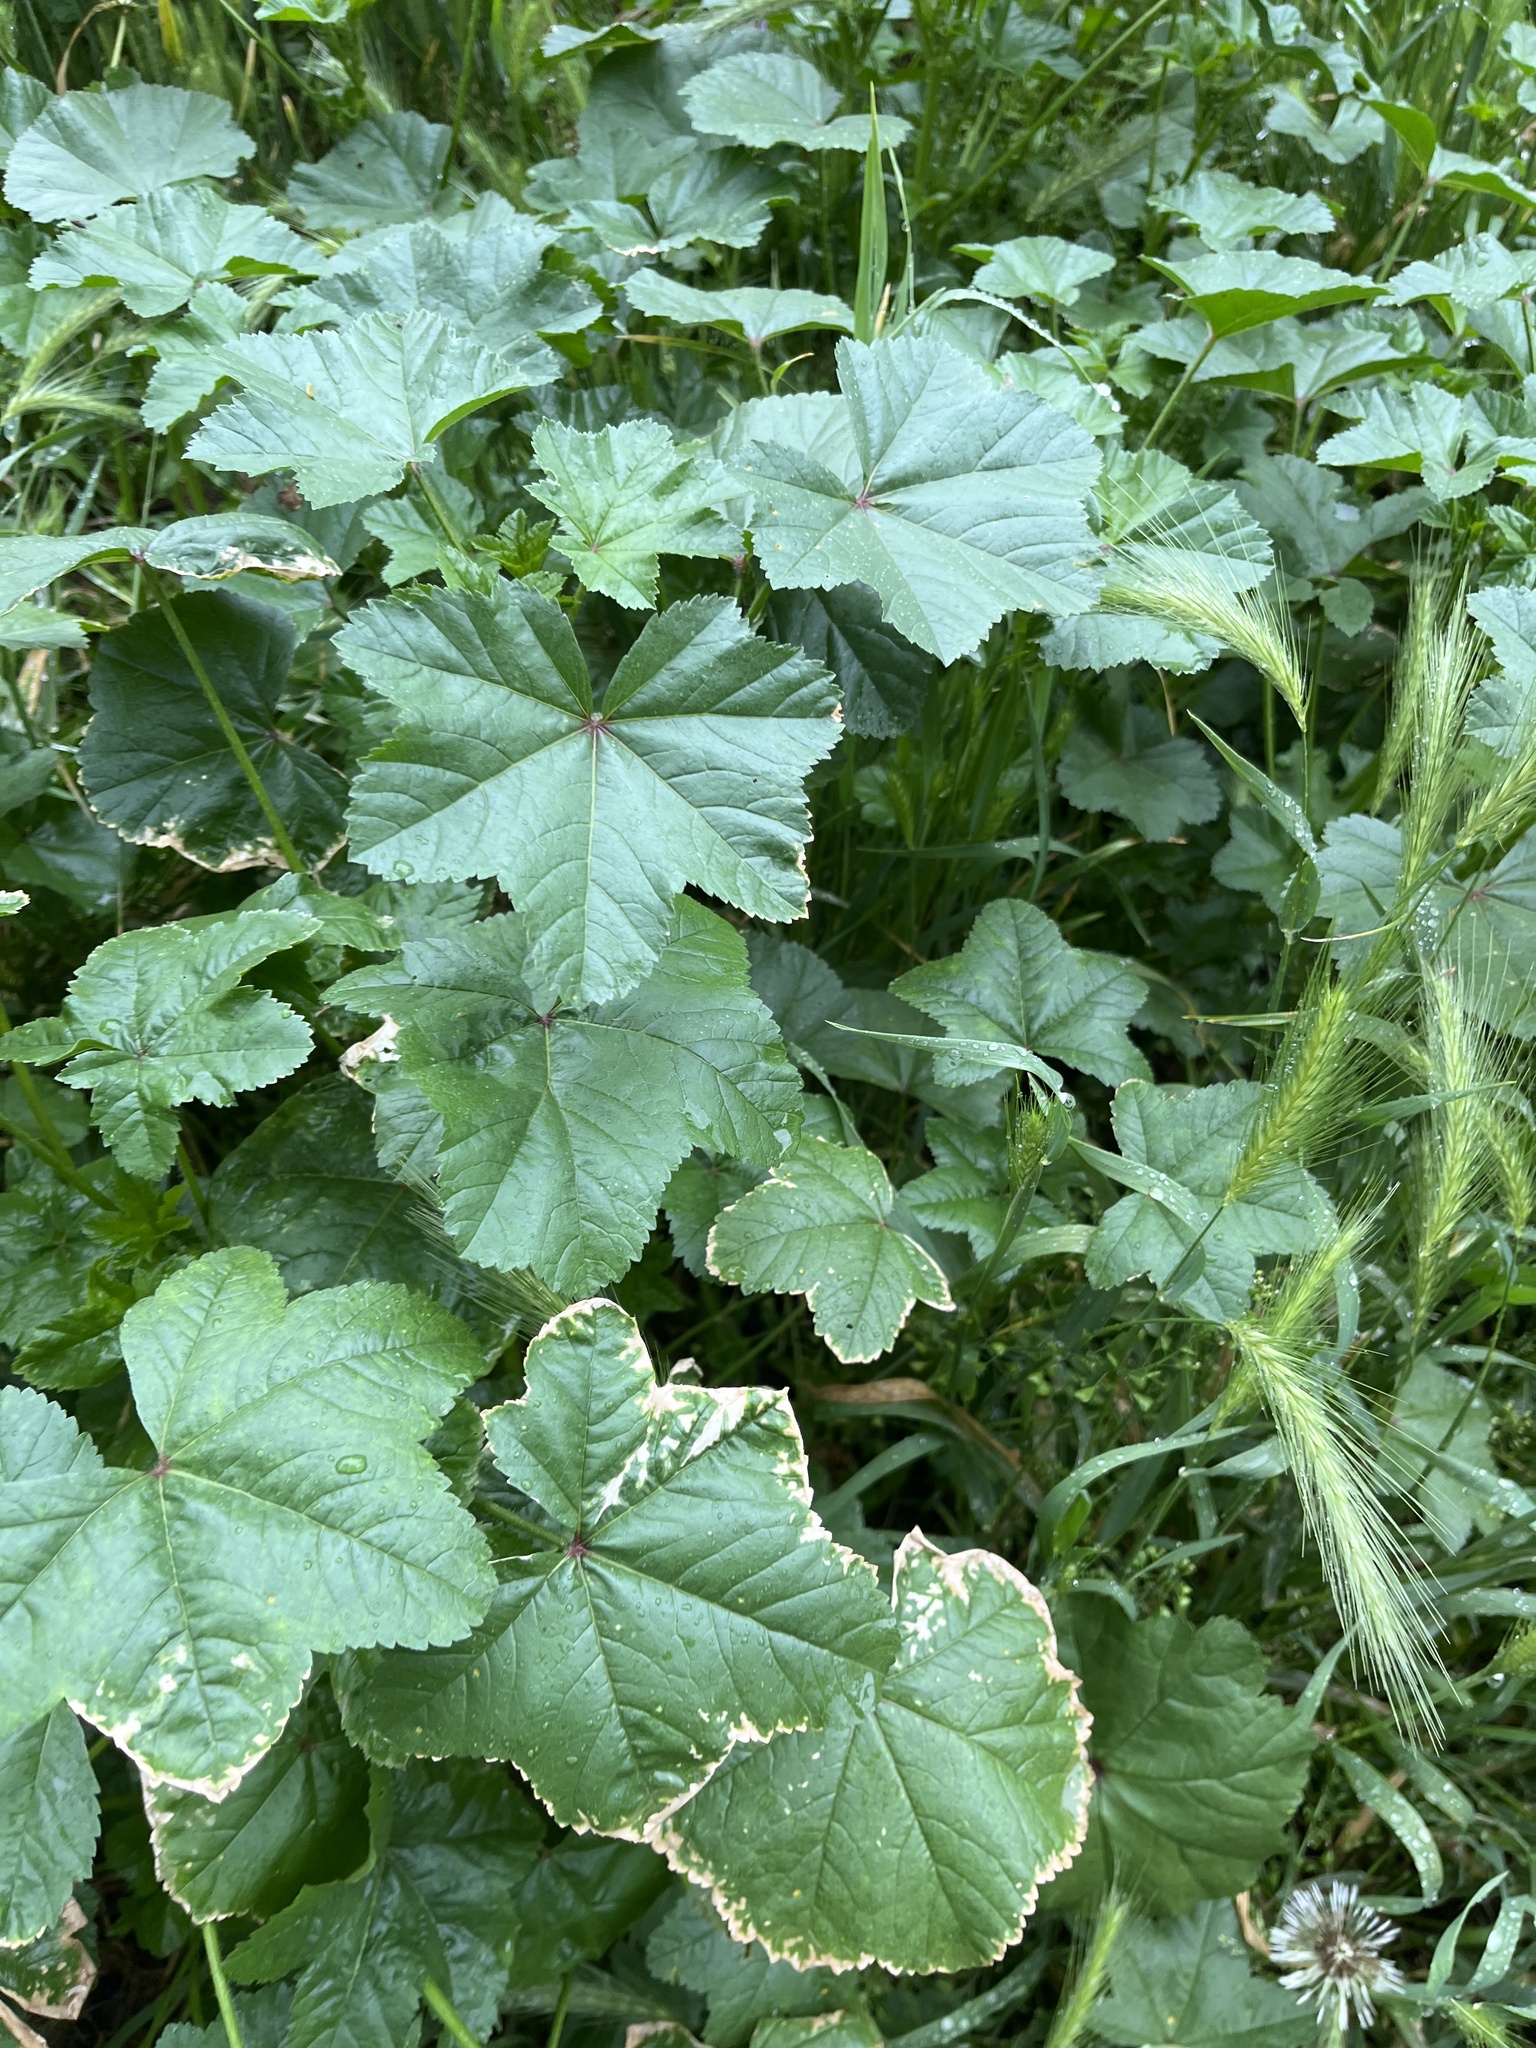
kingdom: Plantae
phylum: Tracheophyta
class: Magnoliopsida
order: Malvales
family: Malvaceae
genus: Malva
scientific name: Malva sylvestris
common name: Common mallow
